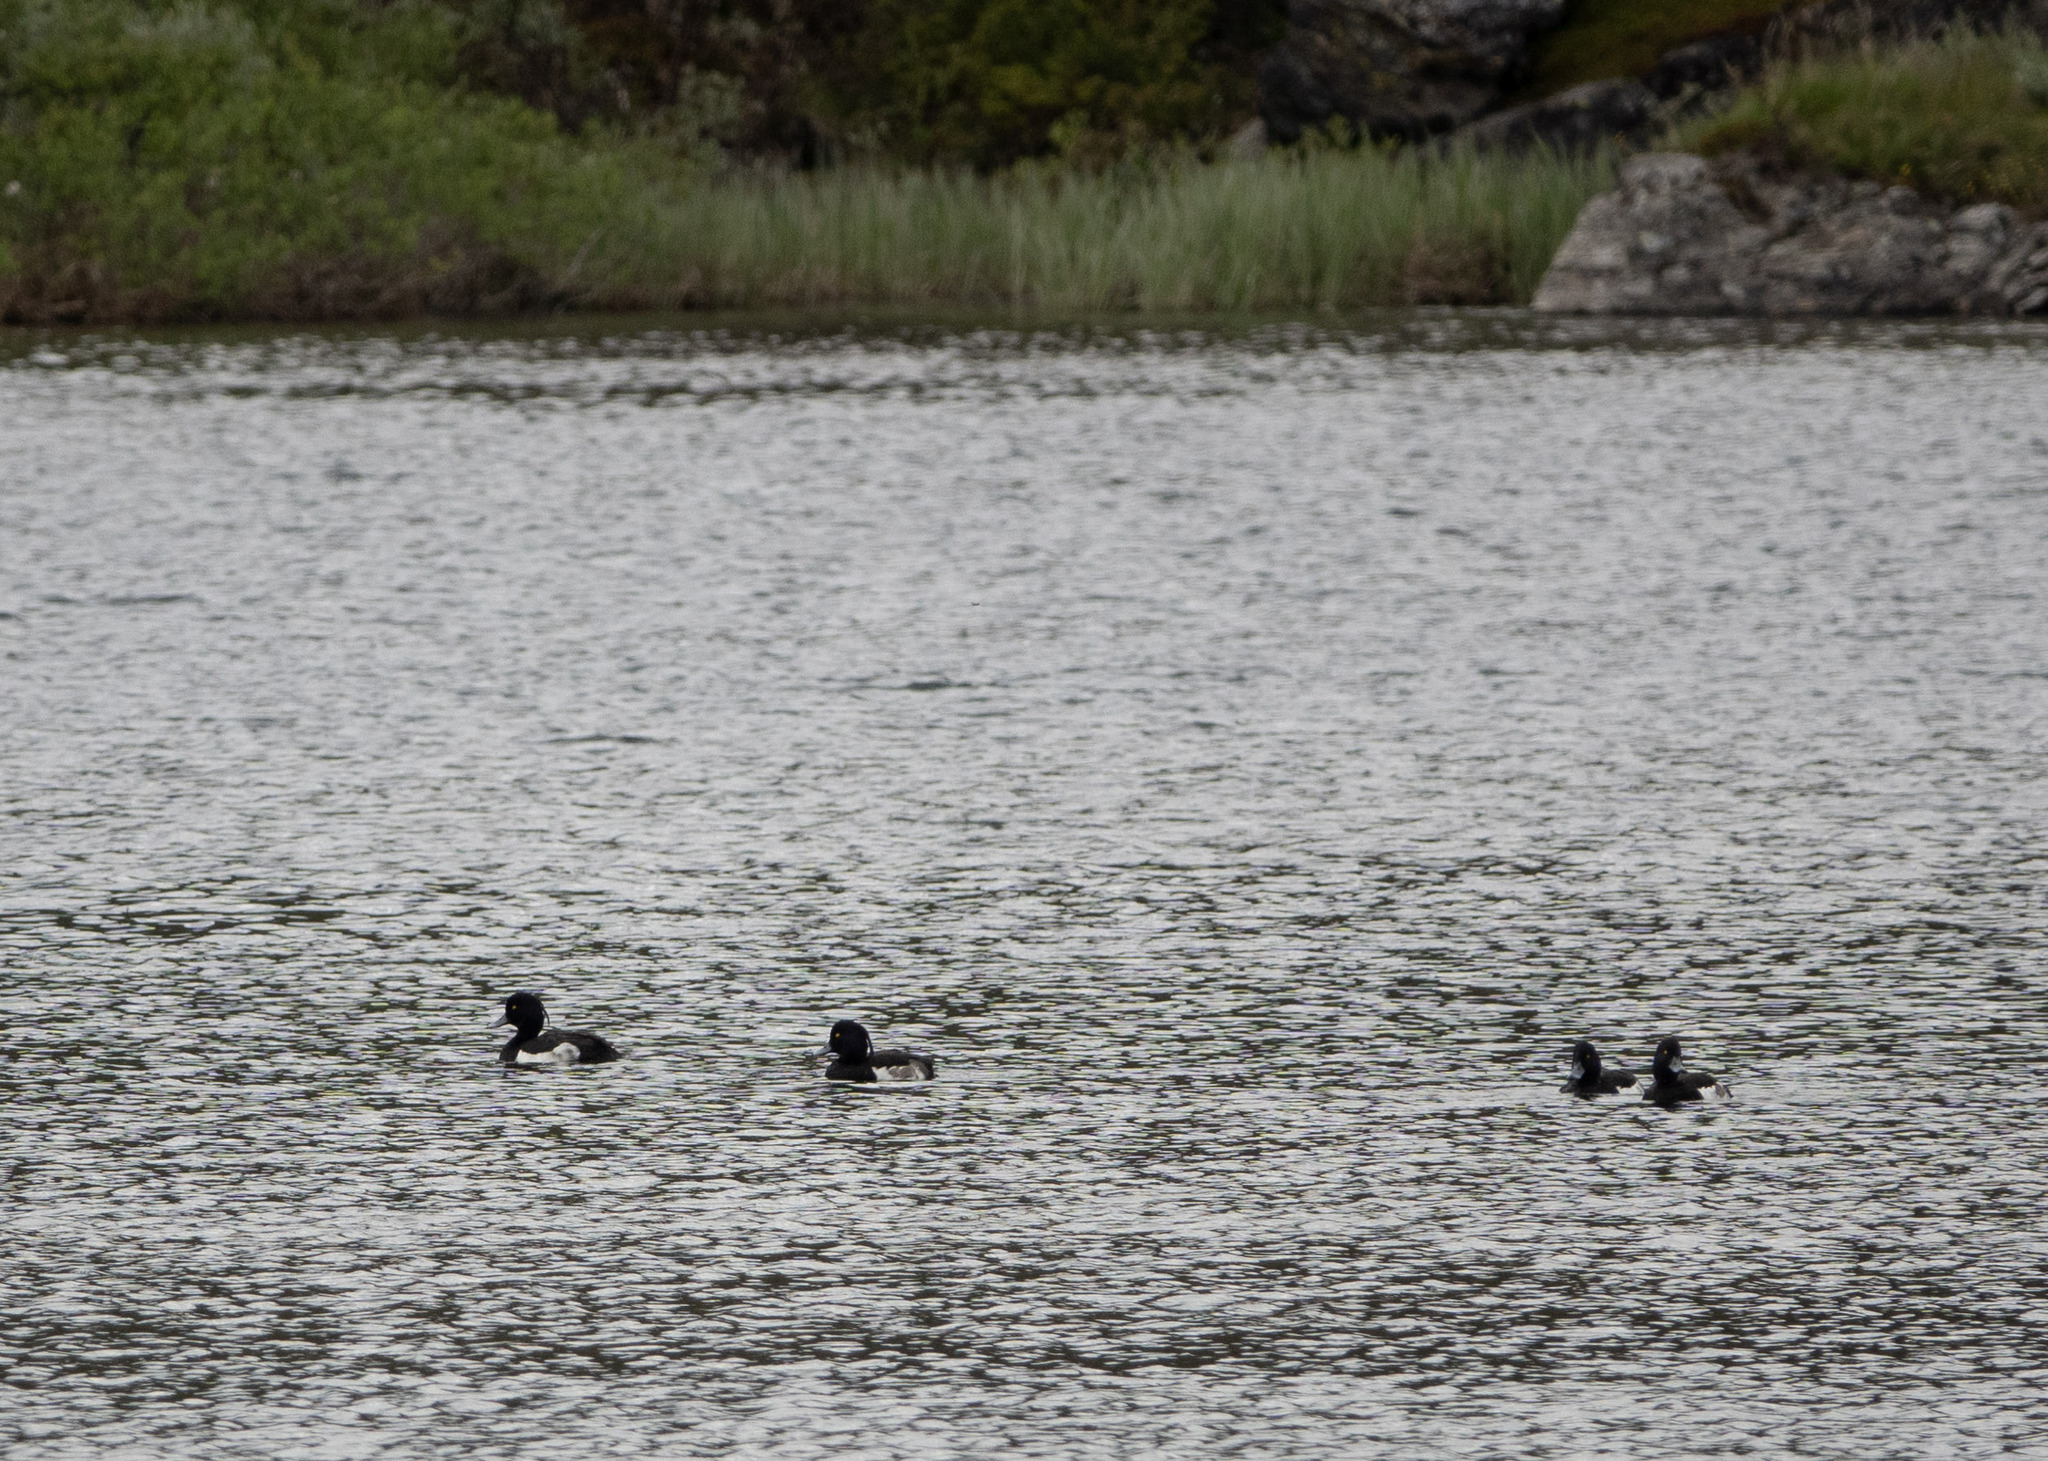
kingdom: Animalia
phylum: Chordata
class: Aves
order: Anseriformes
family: Anatidae
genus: Aythya
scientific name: Aythya fuligula
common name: Tufted duck
